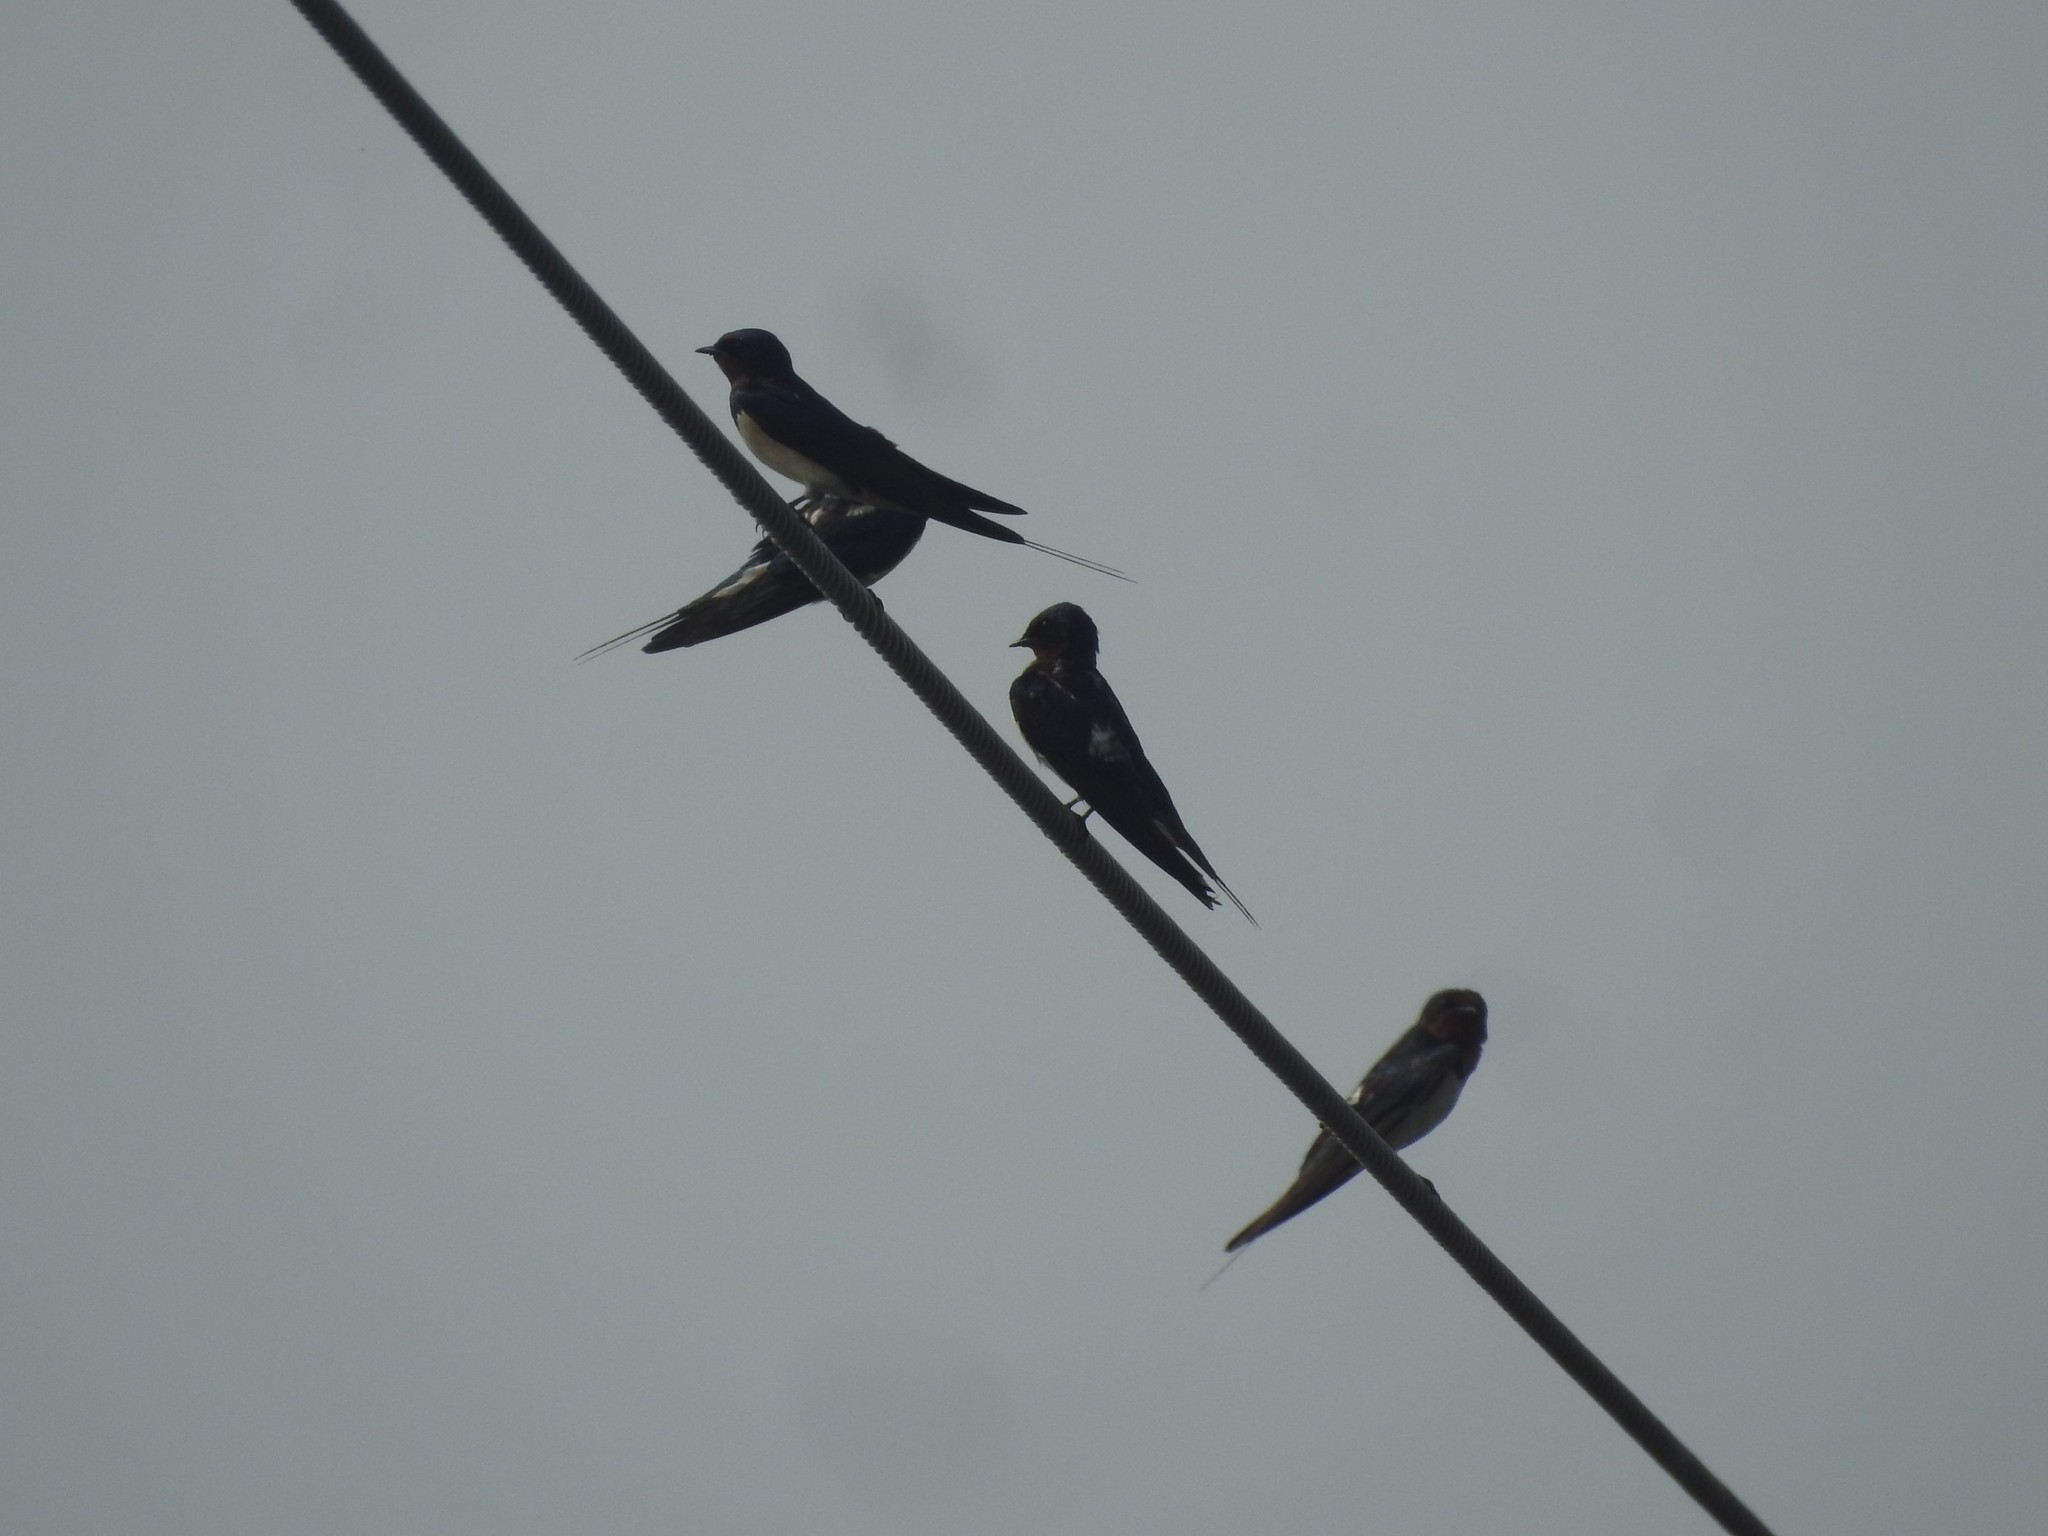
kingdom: Animalia
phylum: Chordata
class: Aves
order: Passeriformes
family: Hirundinidae
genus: Hirundo
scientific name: Hirundo rustica
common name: Barn swallow
